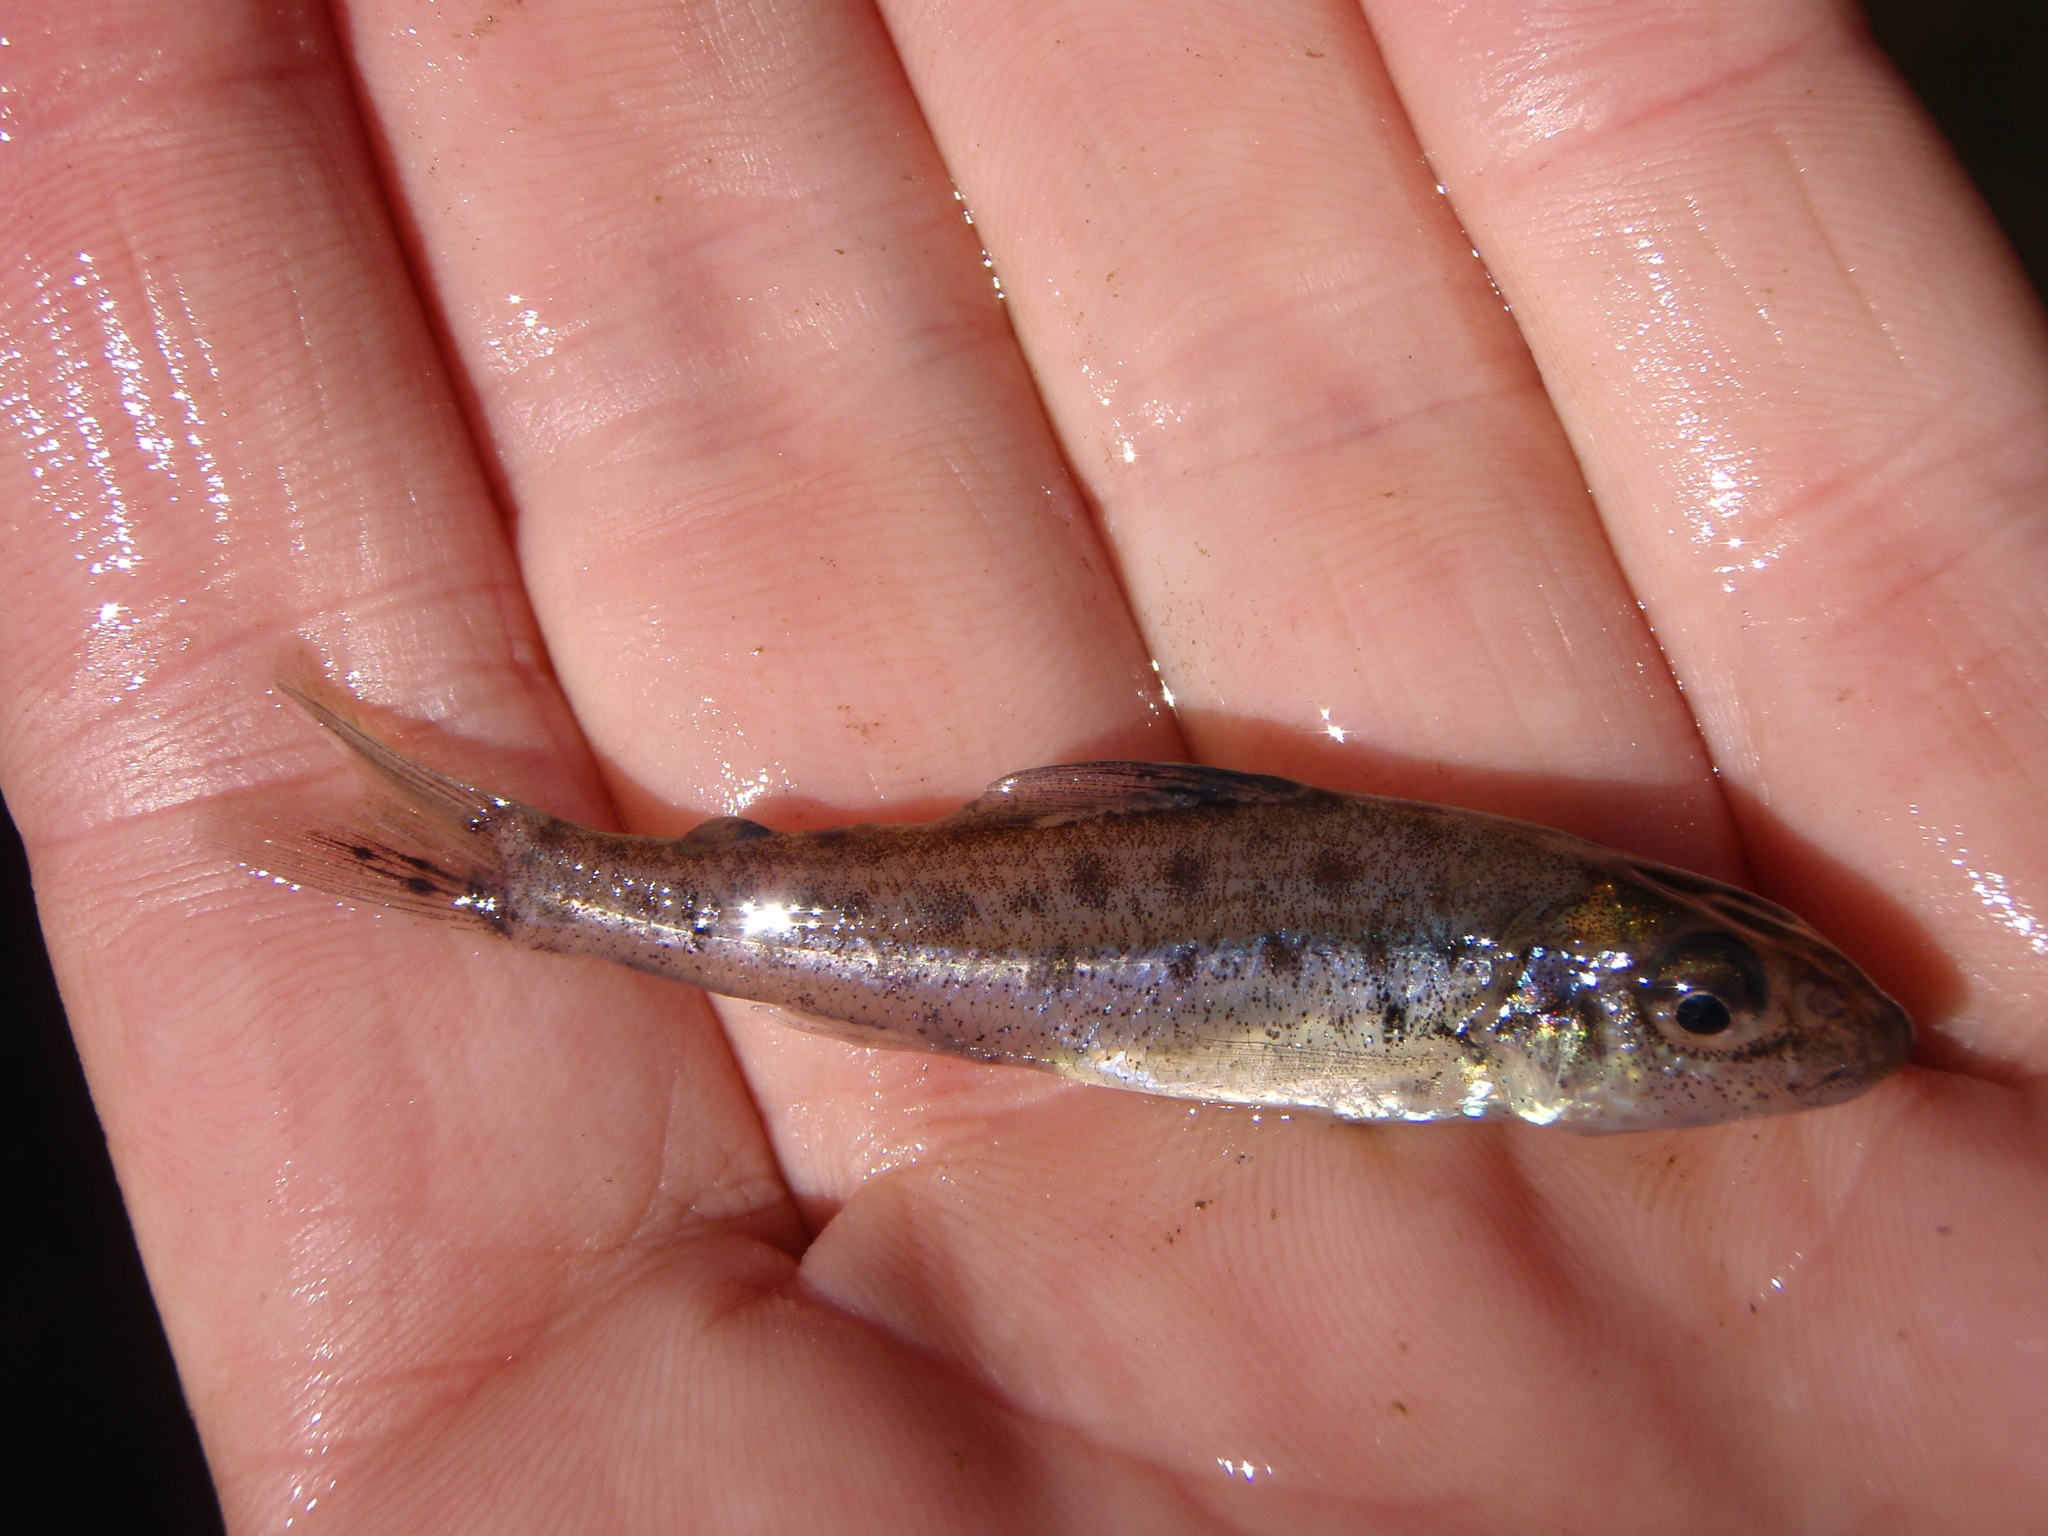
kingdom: Animalia
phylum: Chordata
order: Percopsiformes
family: Percopsidae
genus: Percopsis
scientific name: Percopsis omiscomaycus
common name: Trout-perch
